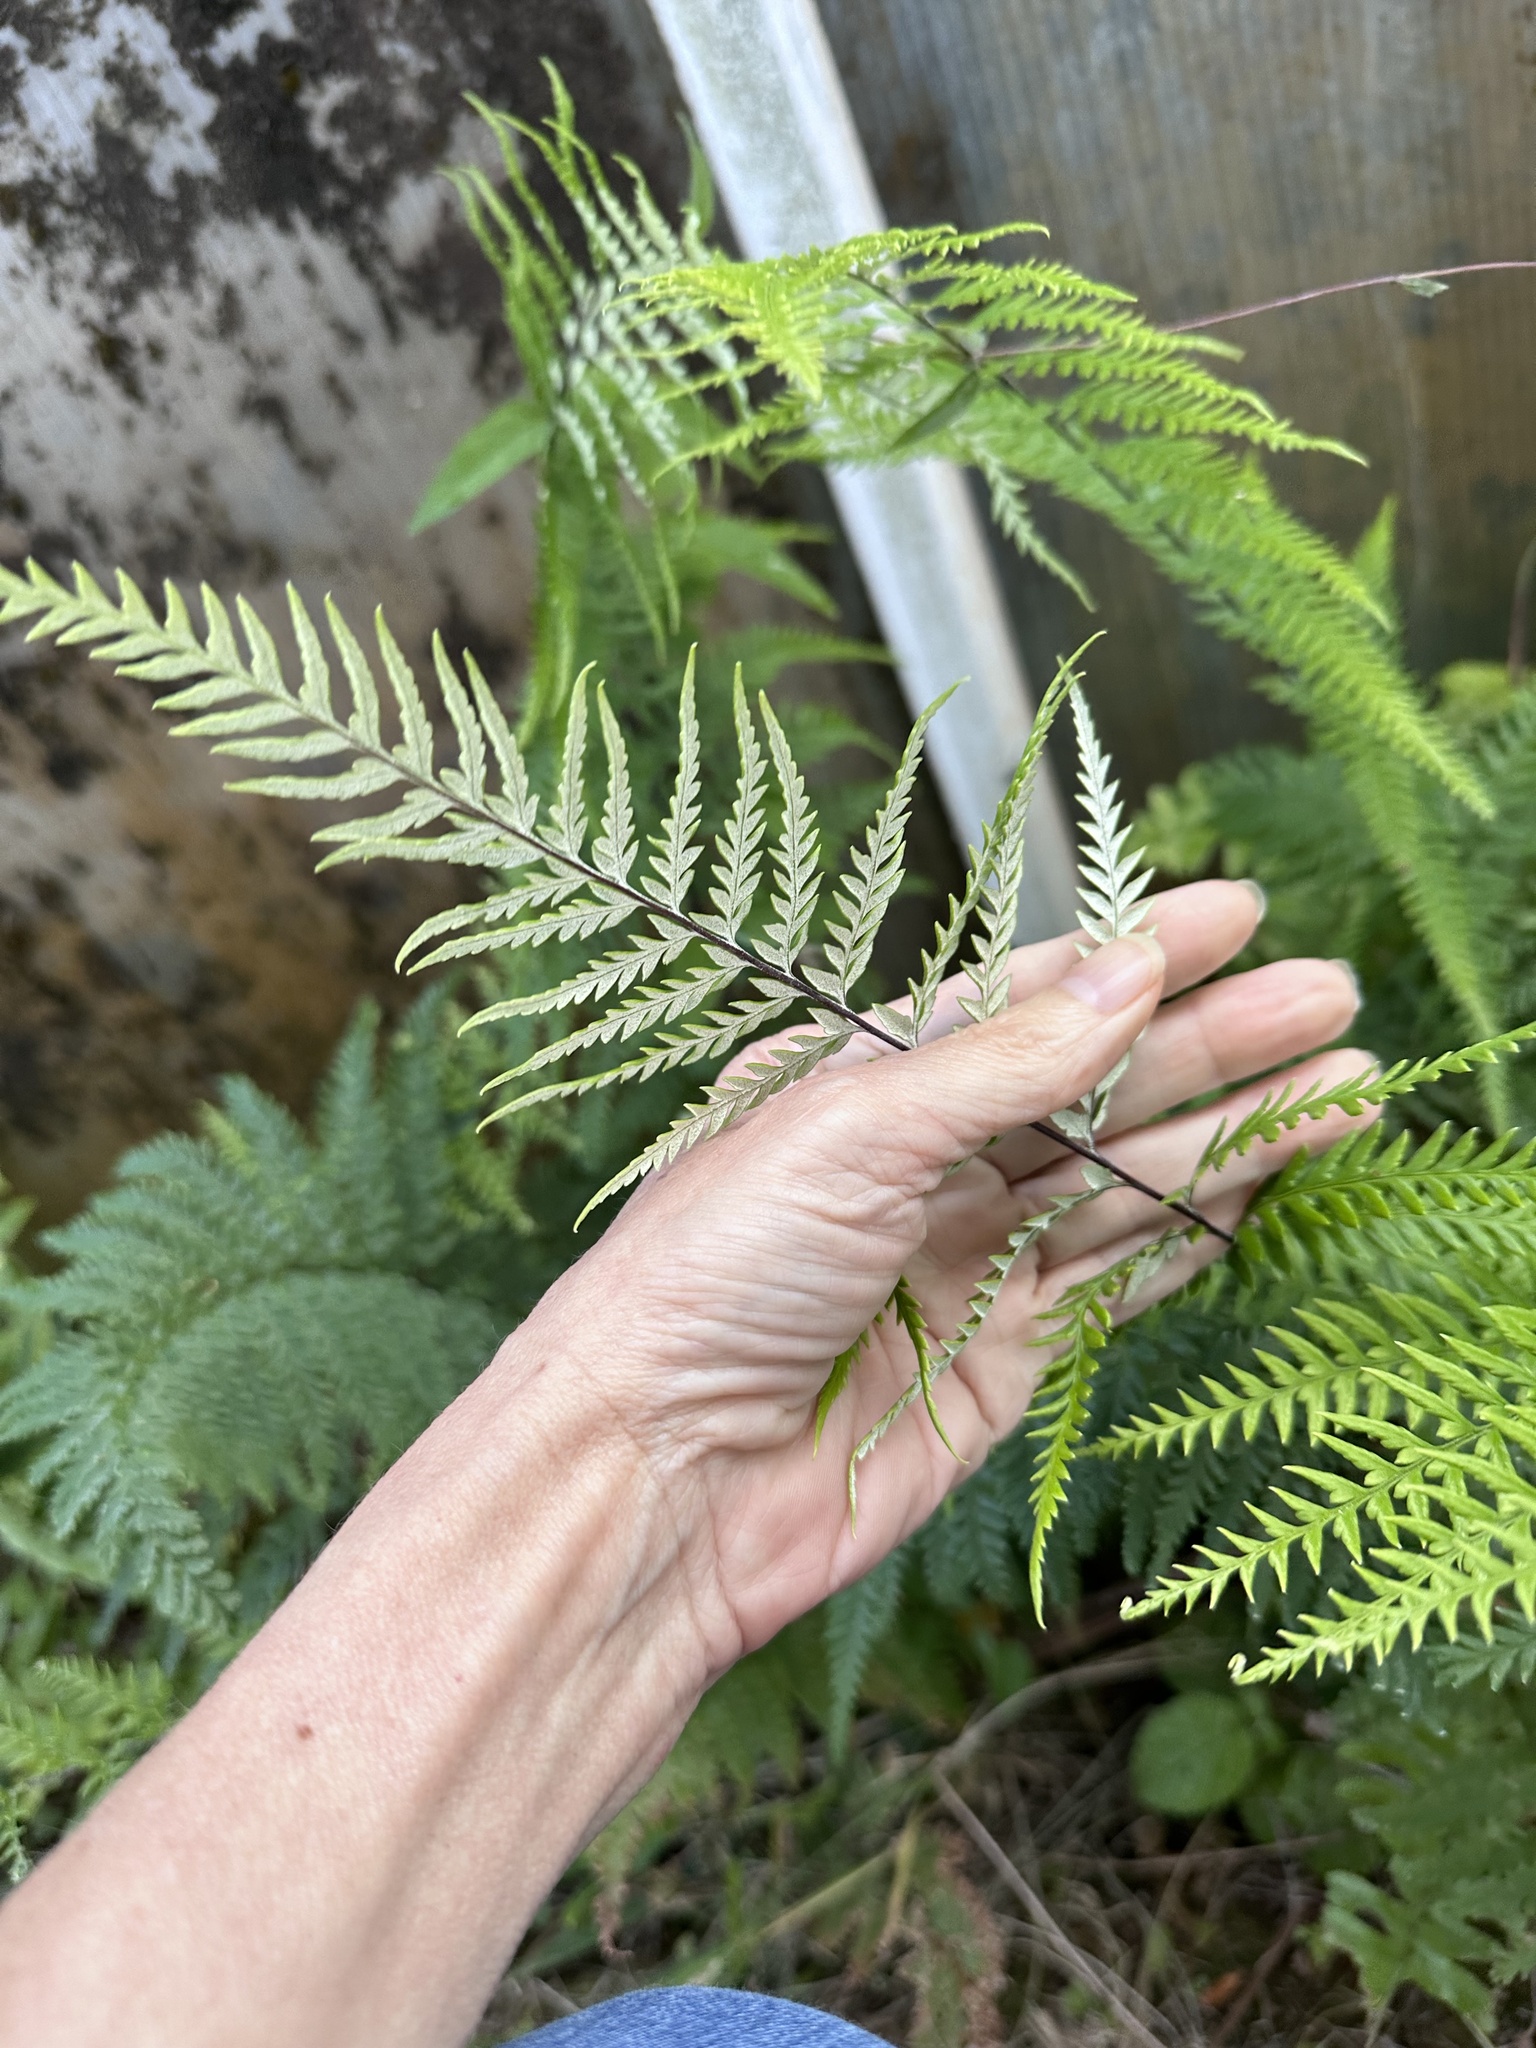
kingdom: Plantae
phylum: Tracheophyta
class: Polypodiopsida
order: Polypodiales
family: Pteridaceae
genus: Pityrogramma
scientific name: Pityrogramma calomelanos
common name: Dixie silverback fern
